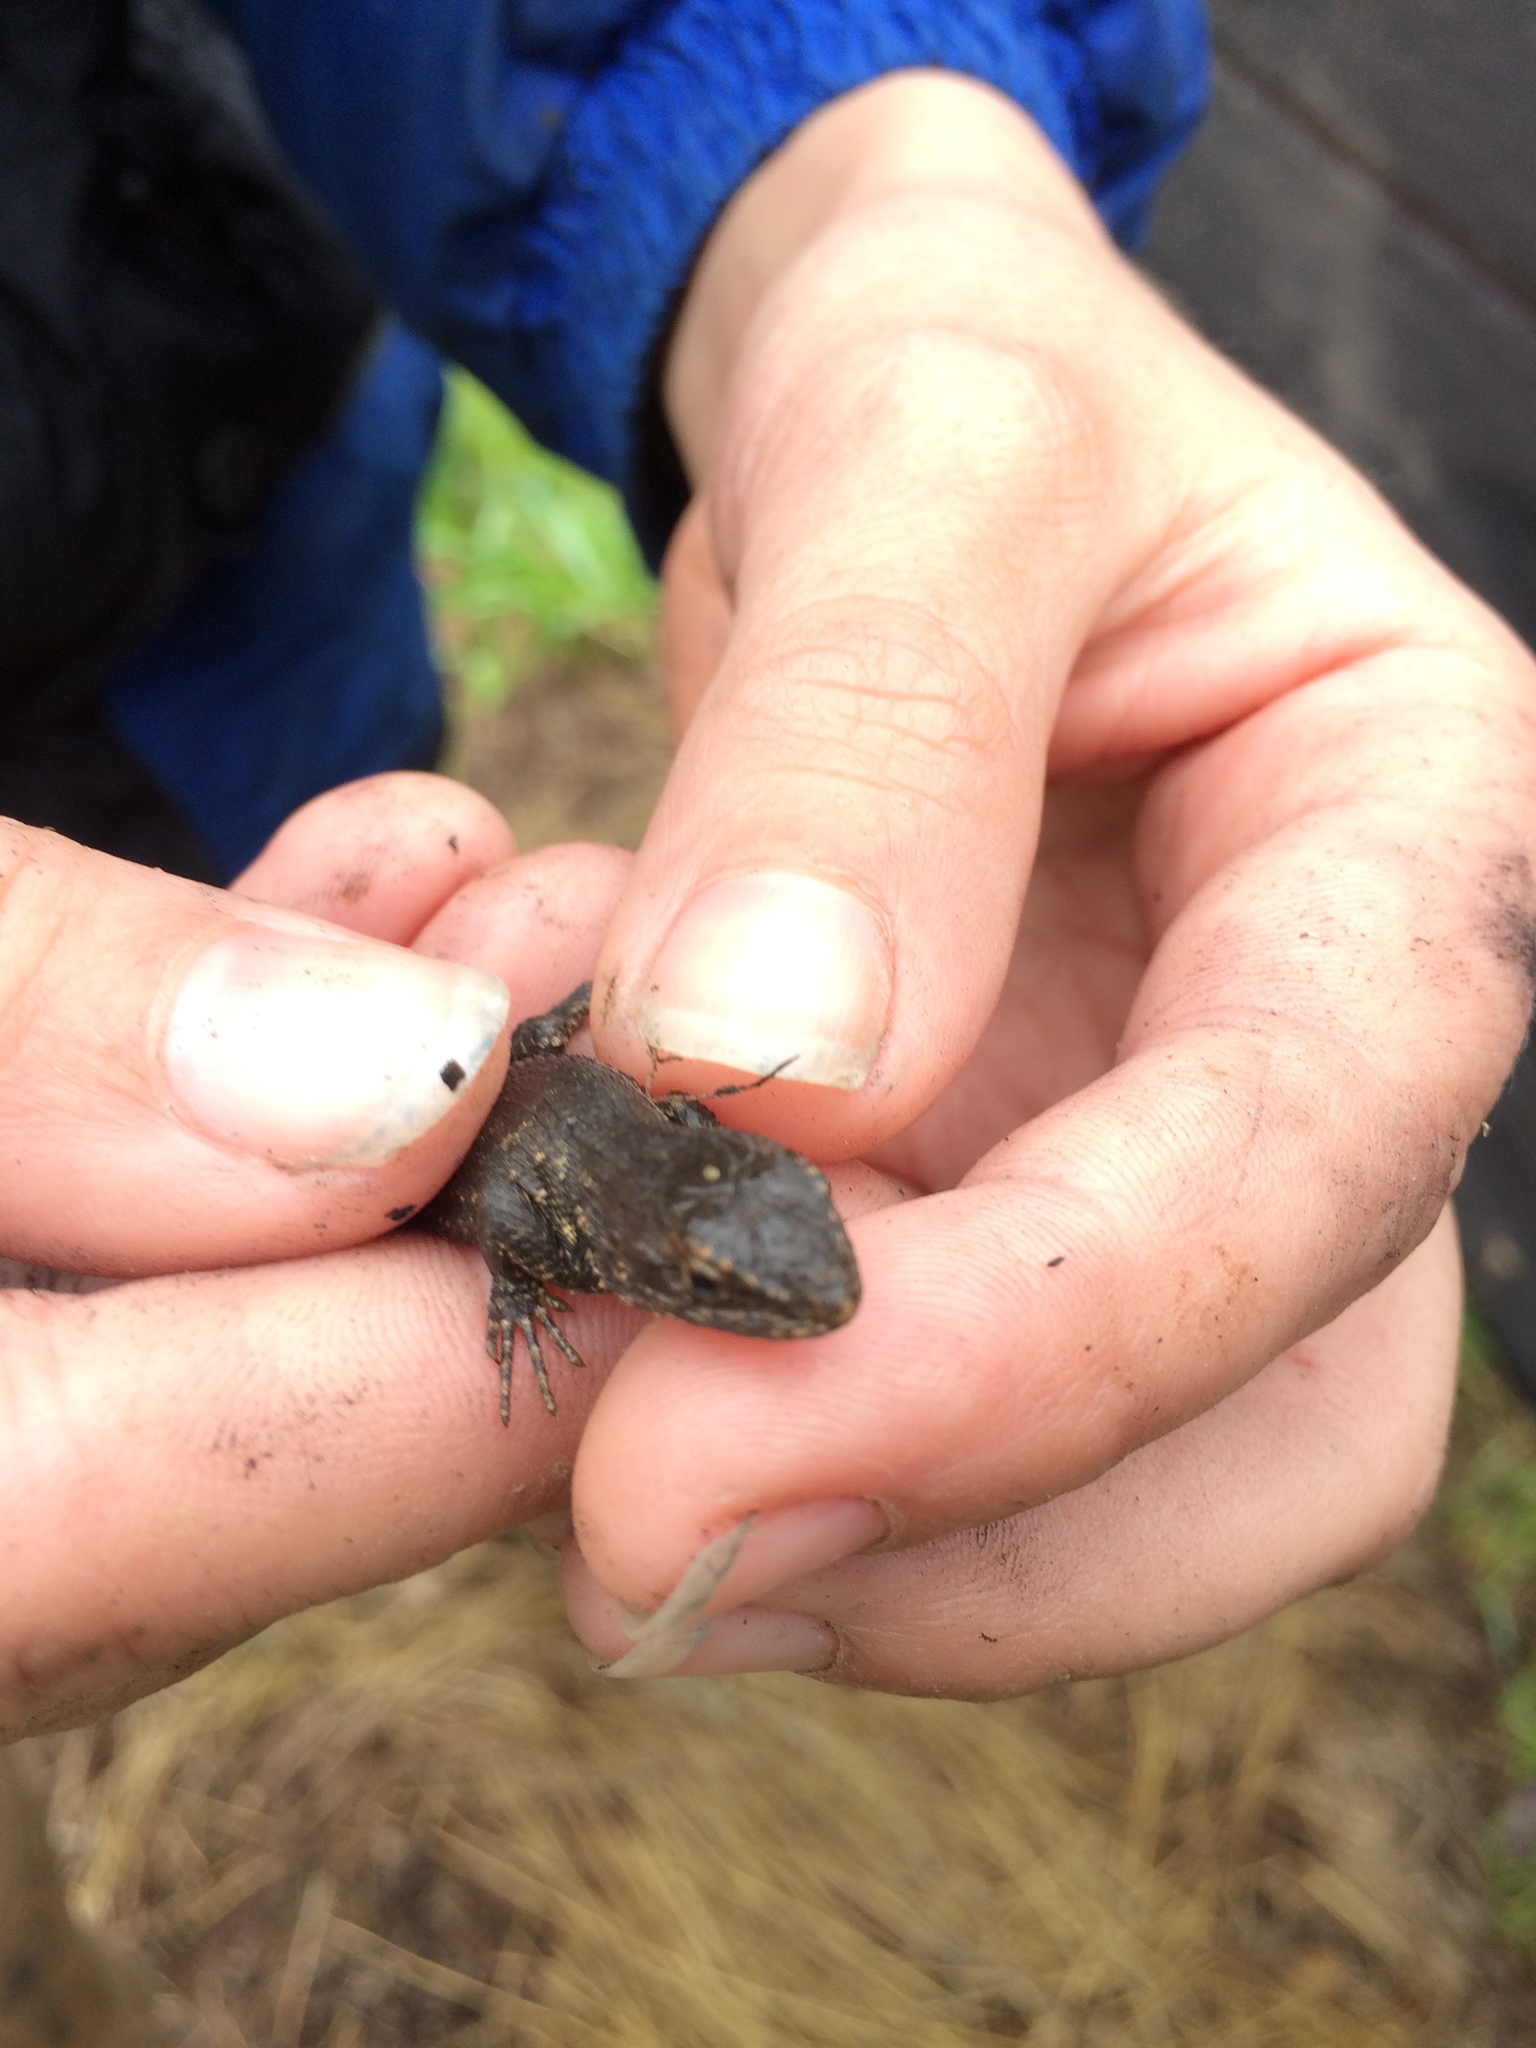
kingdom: Animalia
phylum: Chordata
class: Squamata
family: Phrynosomatidae
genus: Sceloporus
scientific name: Sceloporus occidentalis
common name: Western fence lizard
